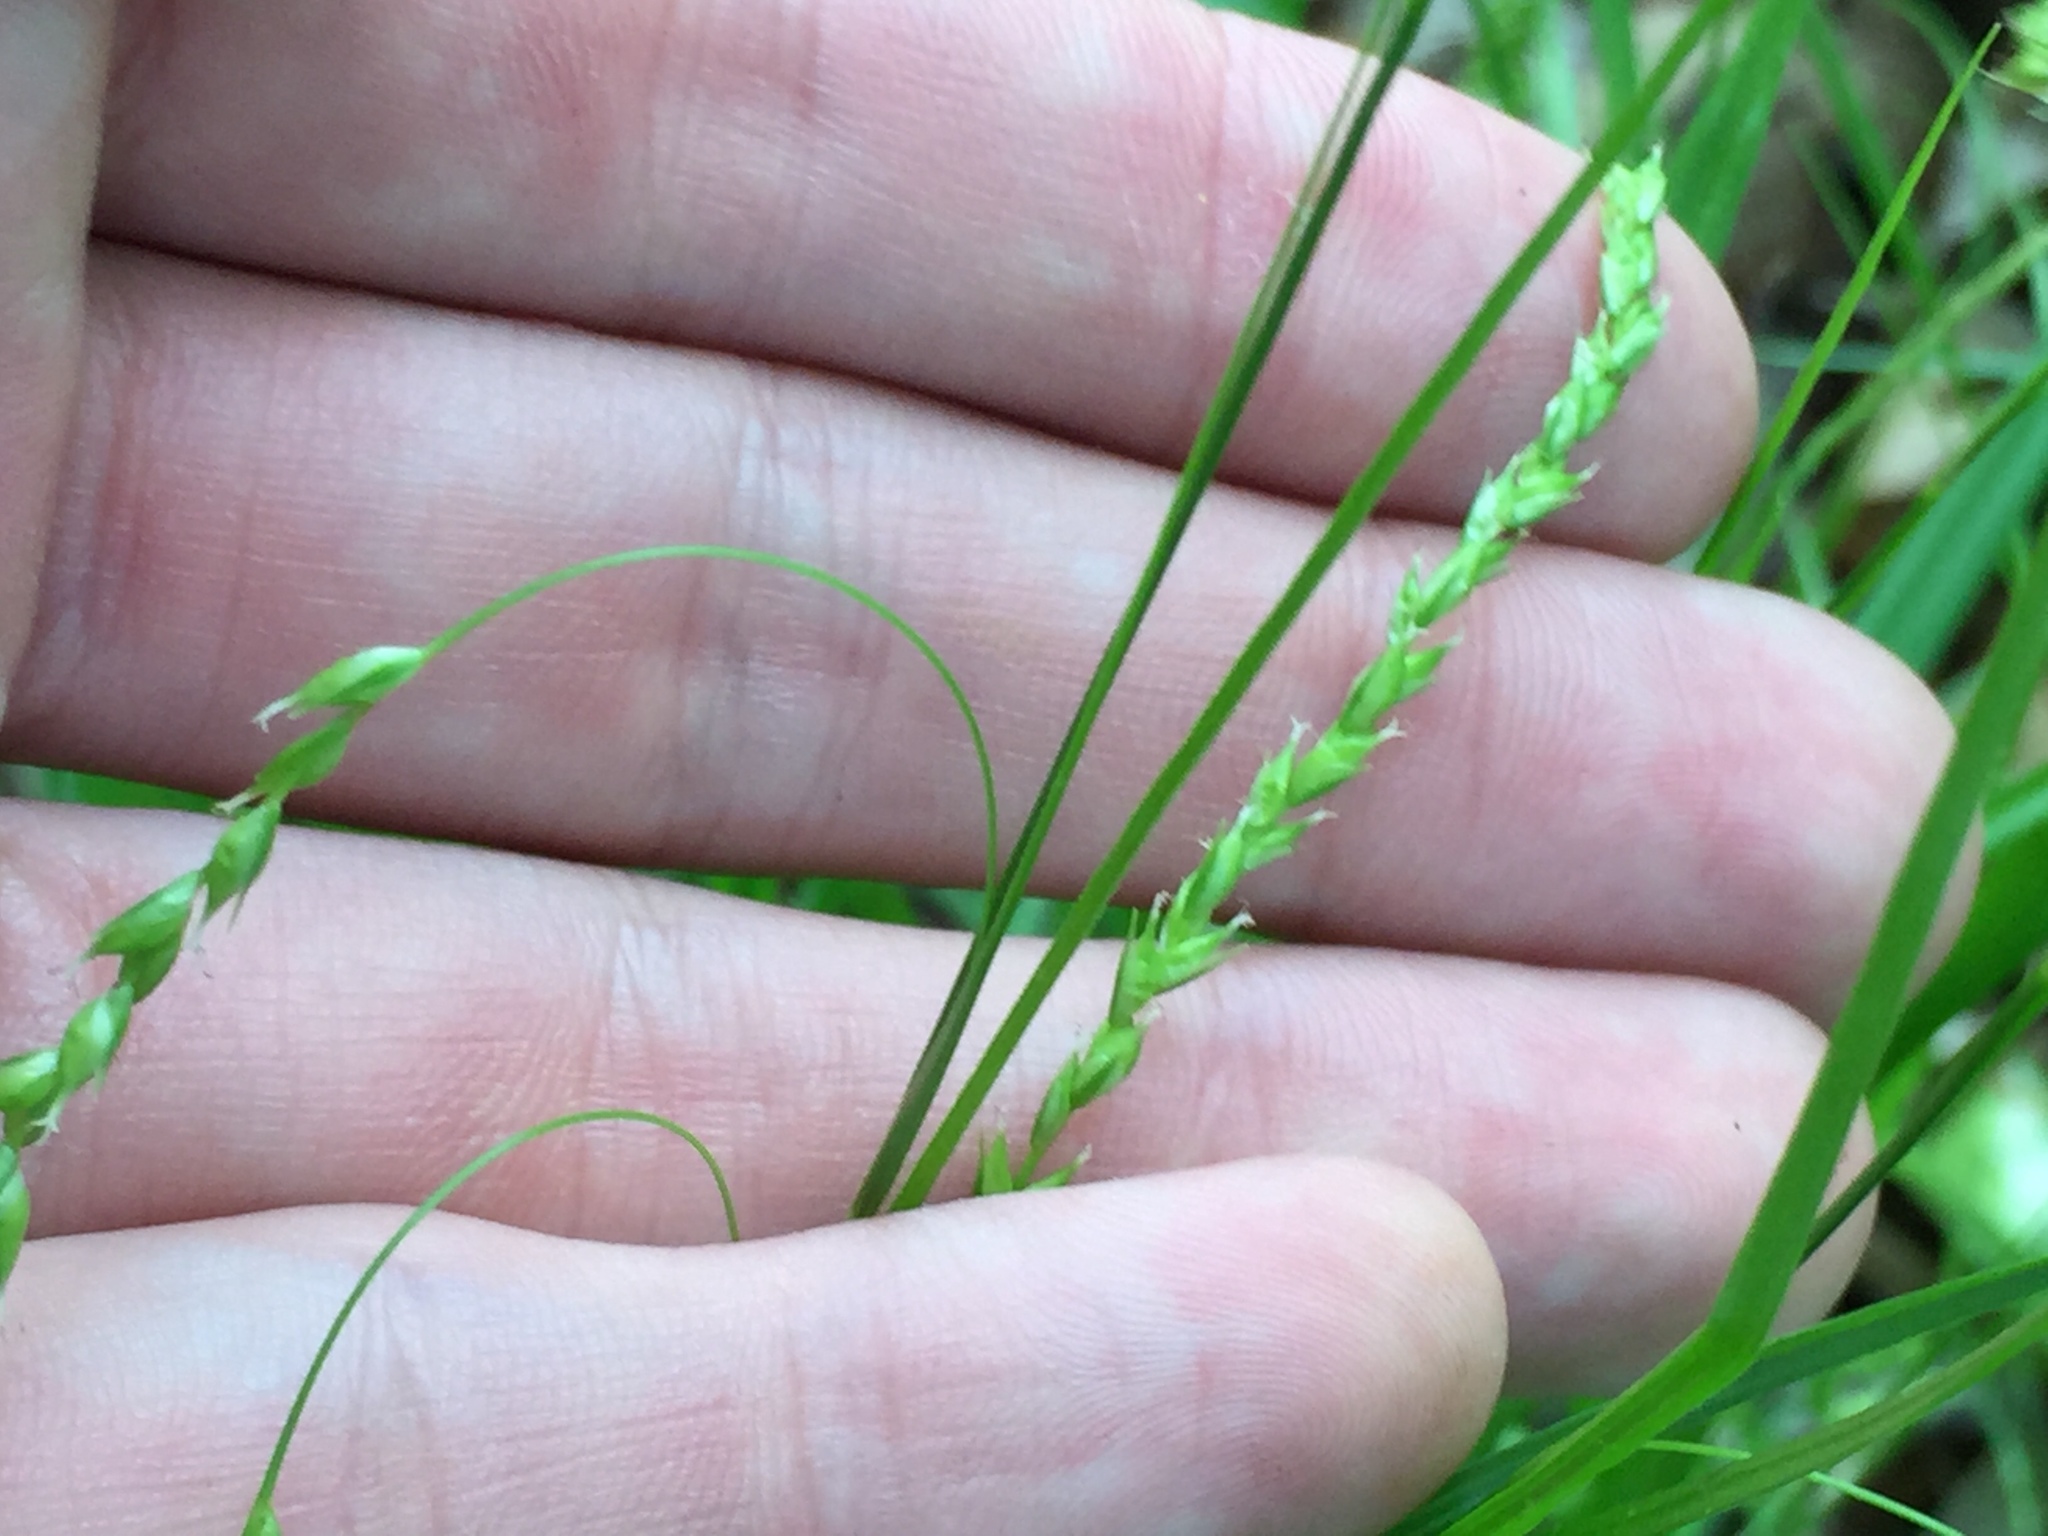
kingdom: Plantae
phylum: Tracheophyta
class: Liliopsida
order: Poales
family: Cyperaceae
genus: Carex
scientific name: Carex arctata
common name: Black sedge
